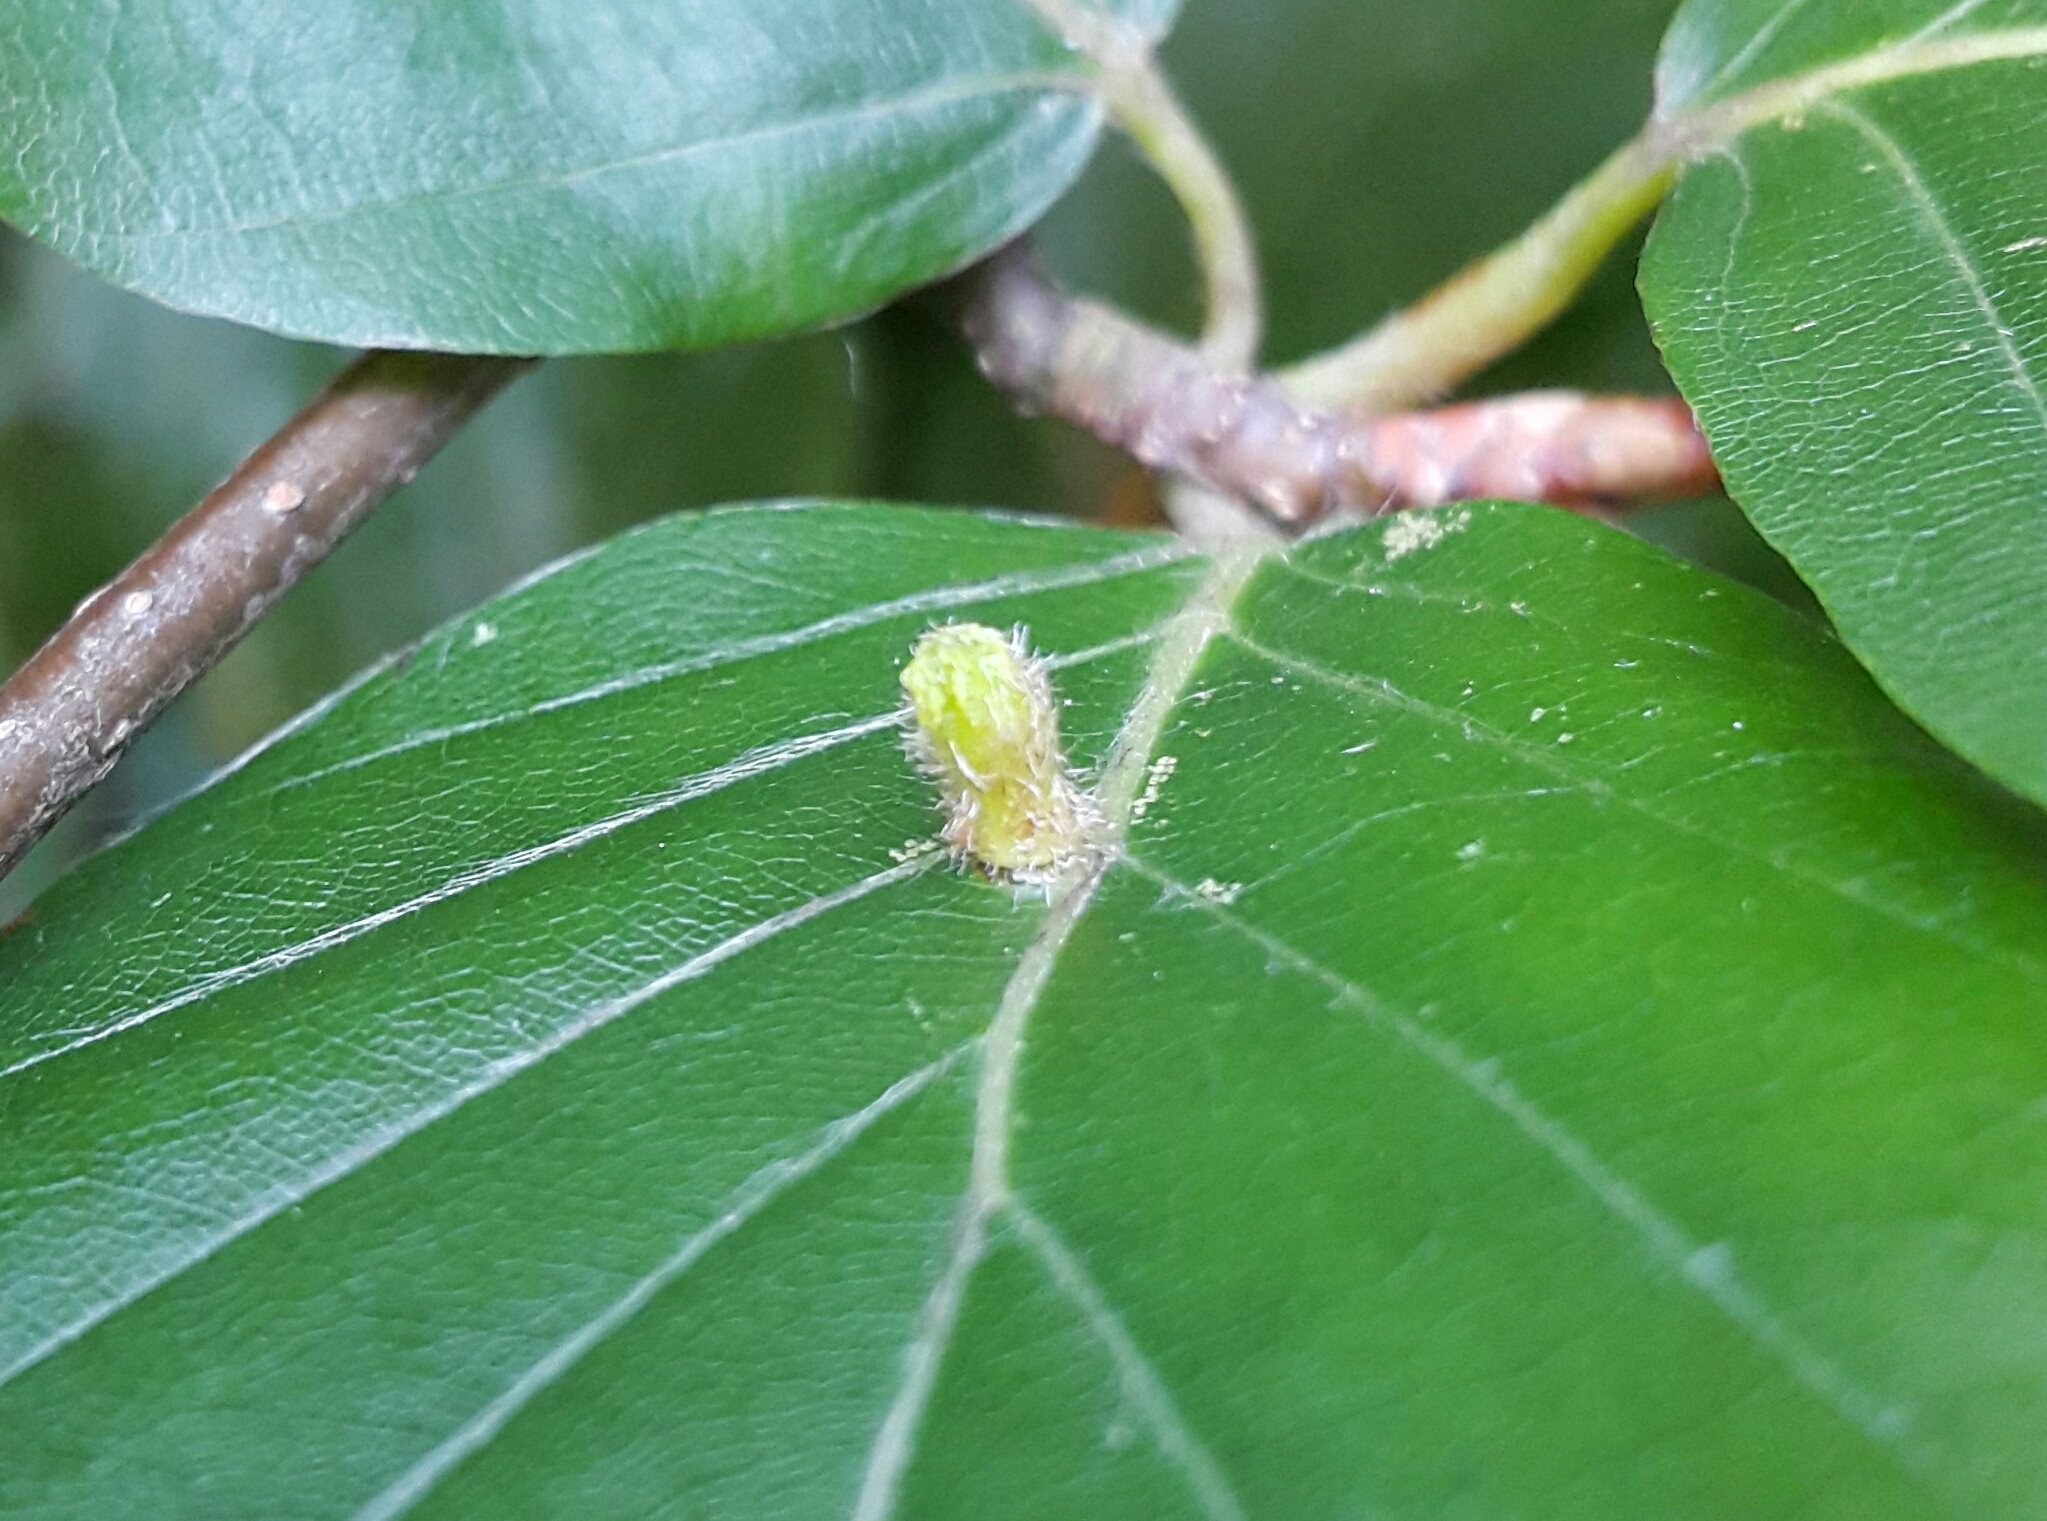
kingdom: Animalia
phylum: Arthropoda
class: Insecta
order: Diptera
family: Cecidomyiidae
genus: Hartigiola
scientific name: Hartigiola annulipes
